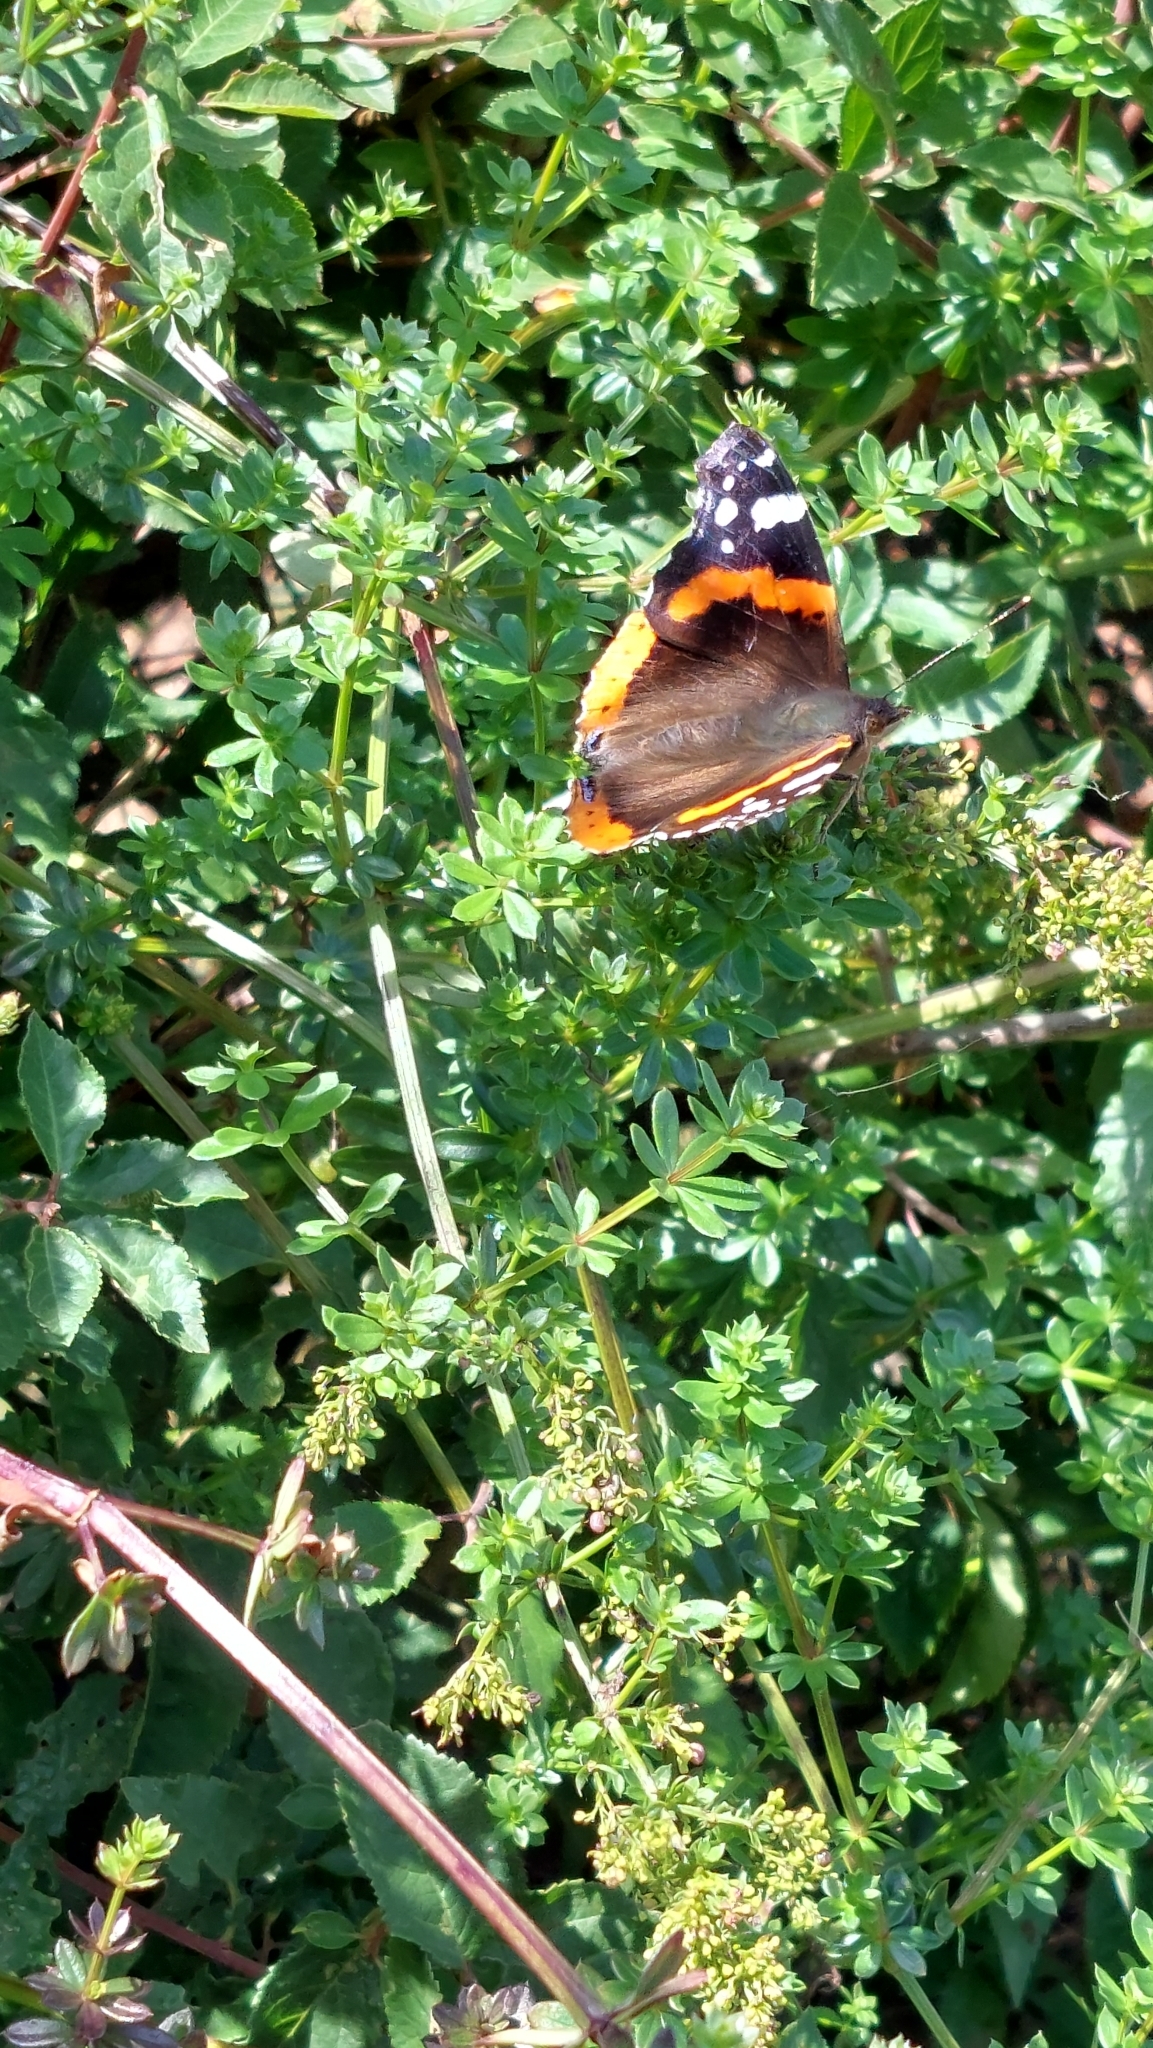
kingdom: Animalia
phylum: Arthropoda
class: Insecta
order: Lepidoptera
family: Nymphalidae
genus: Vanessa
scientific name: Vanessa atalanta
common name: Red admiral
